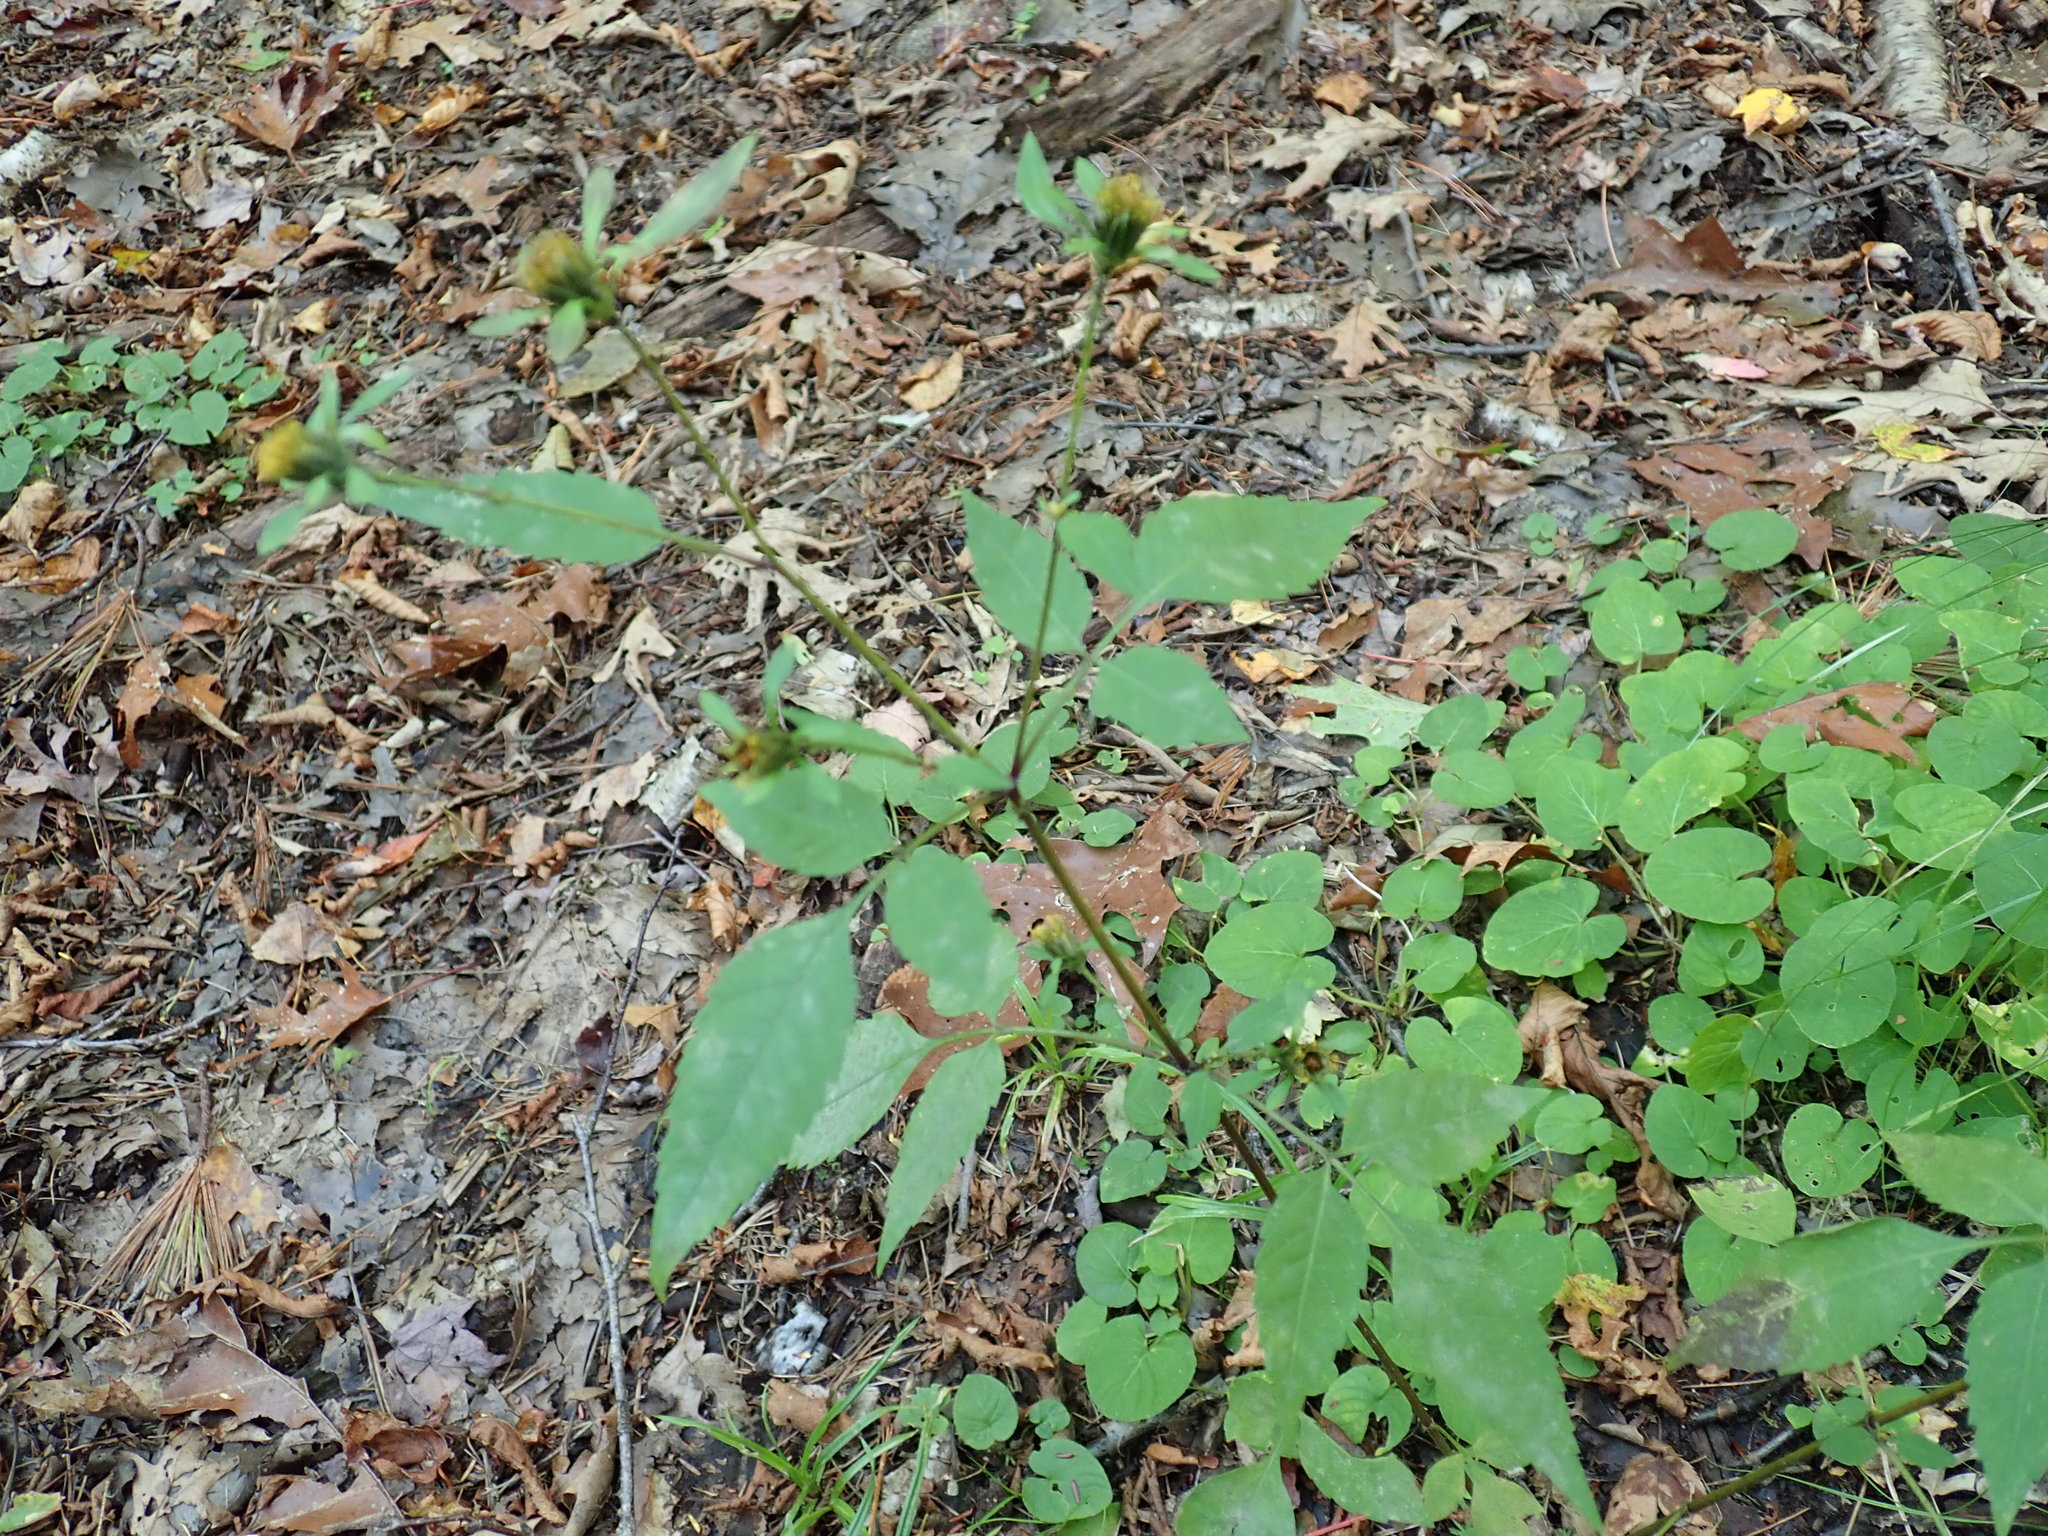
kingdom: Plantae
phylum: Tracheophyta
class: Magnoliopsida
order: Asterales
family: Asteraceae
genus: Bidens
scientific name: Bidens frondosa
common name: Beggarticks
